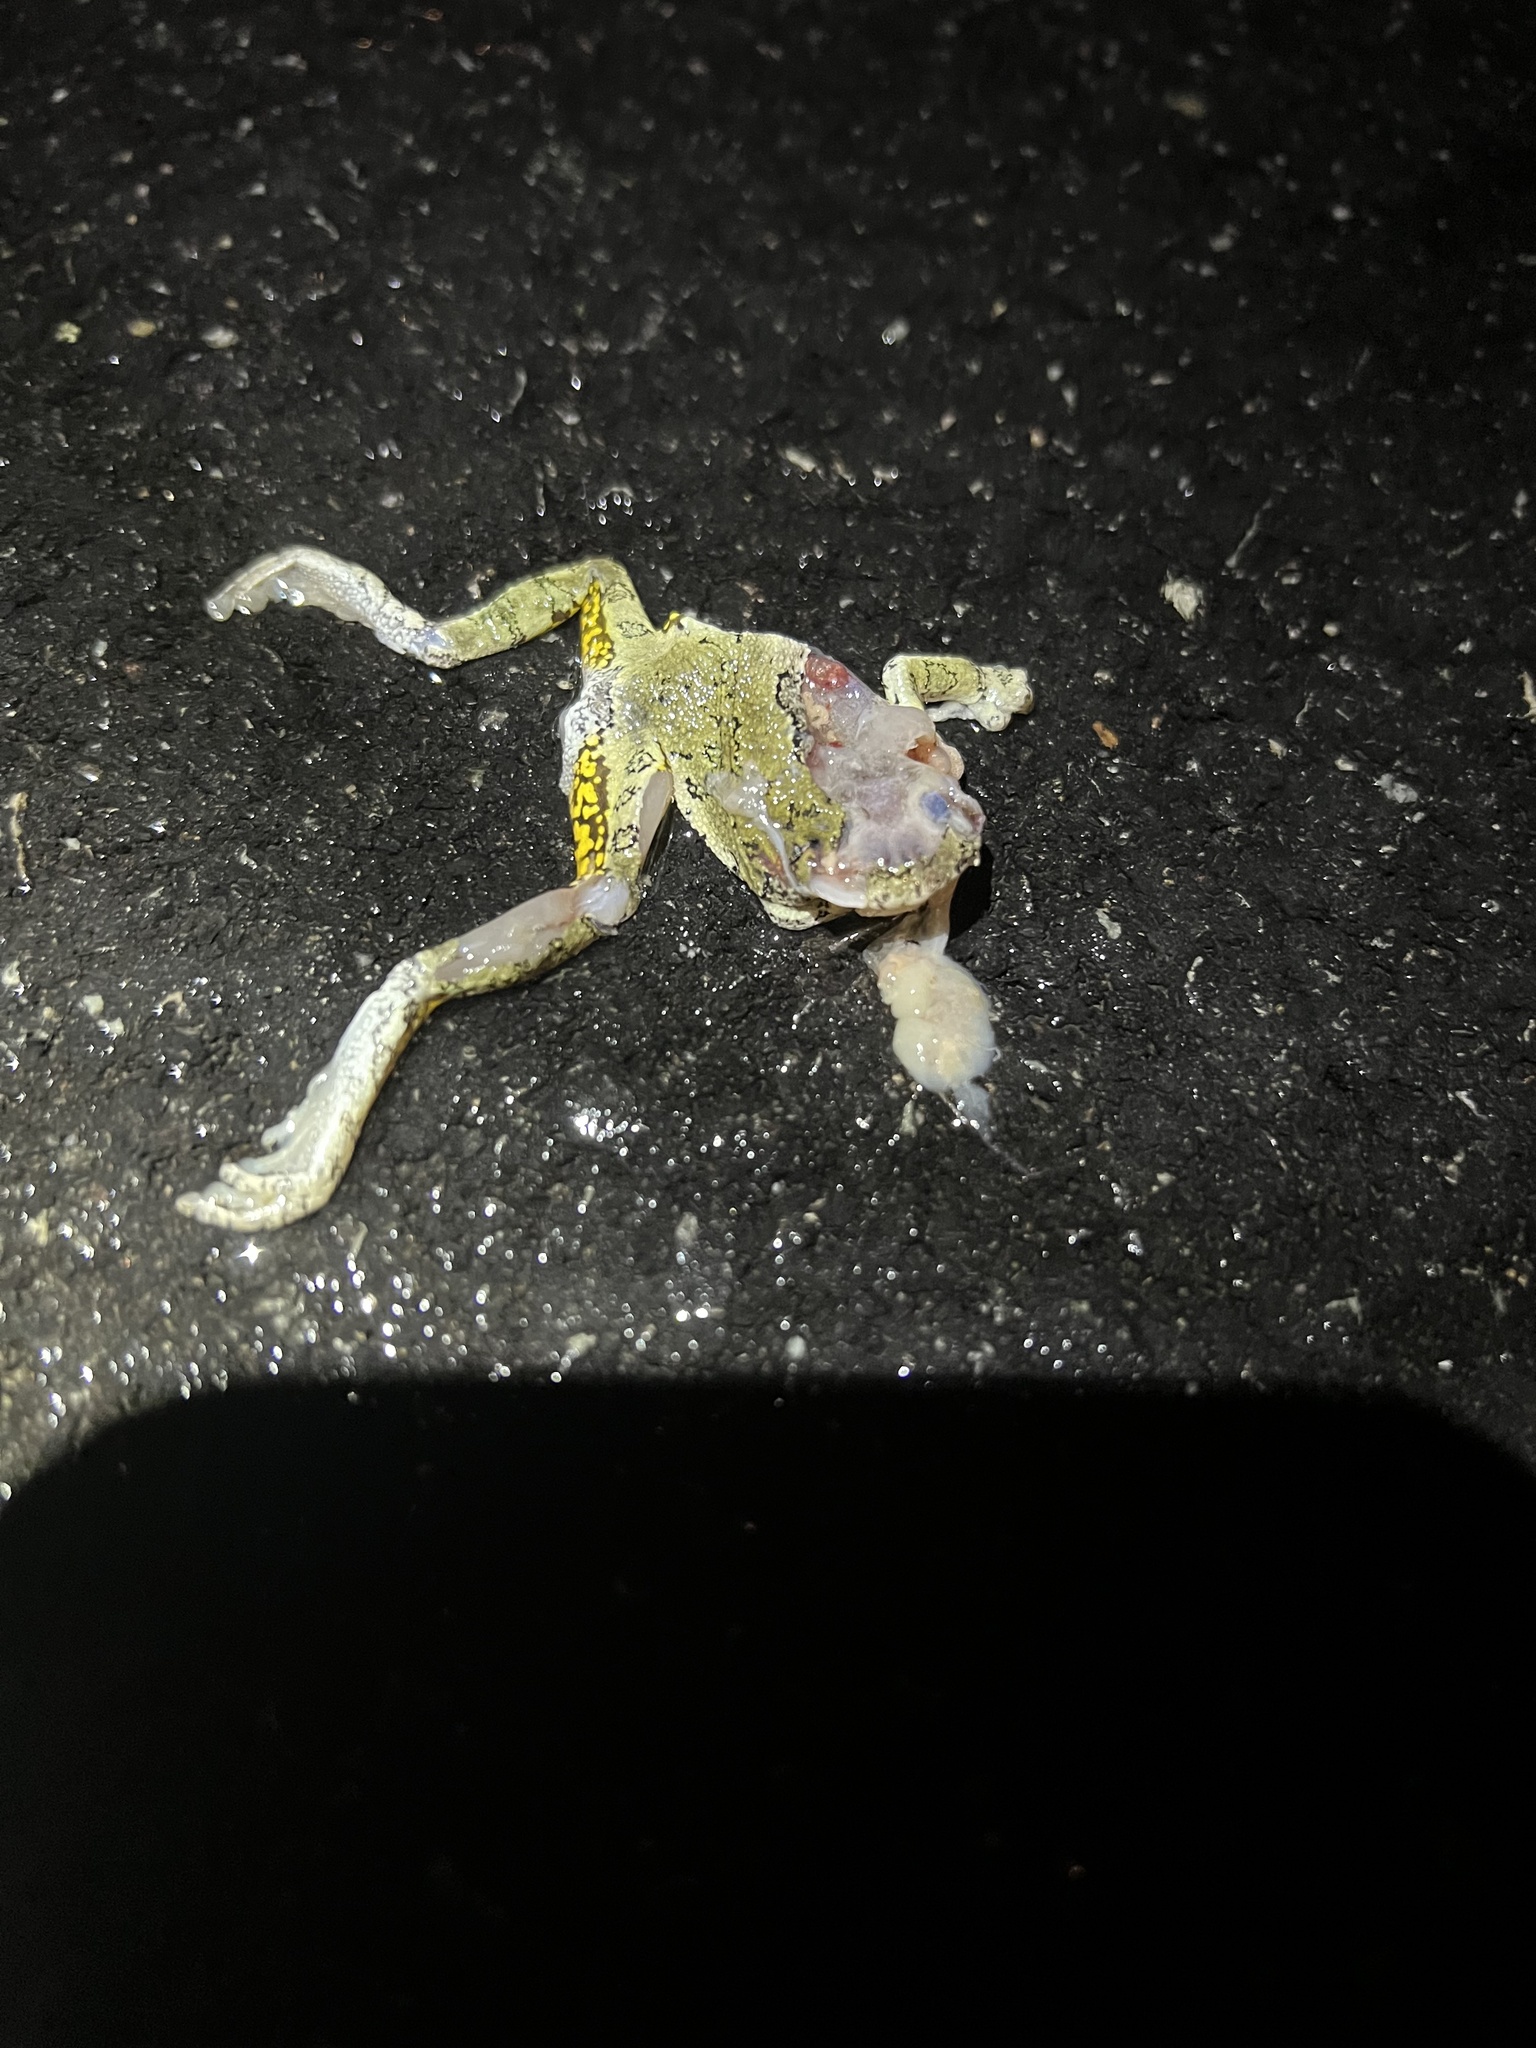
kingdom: Animalia
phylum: Chordata
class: Amphibia
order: Anura
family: Hylidae
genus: Dryophytes
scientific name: Dryophytes versicolor
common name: Gray treefrog
